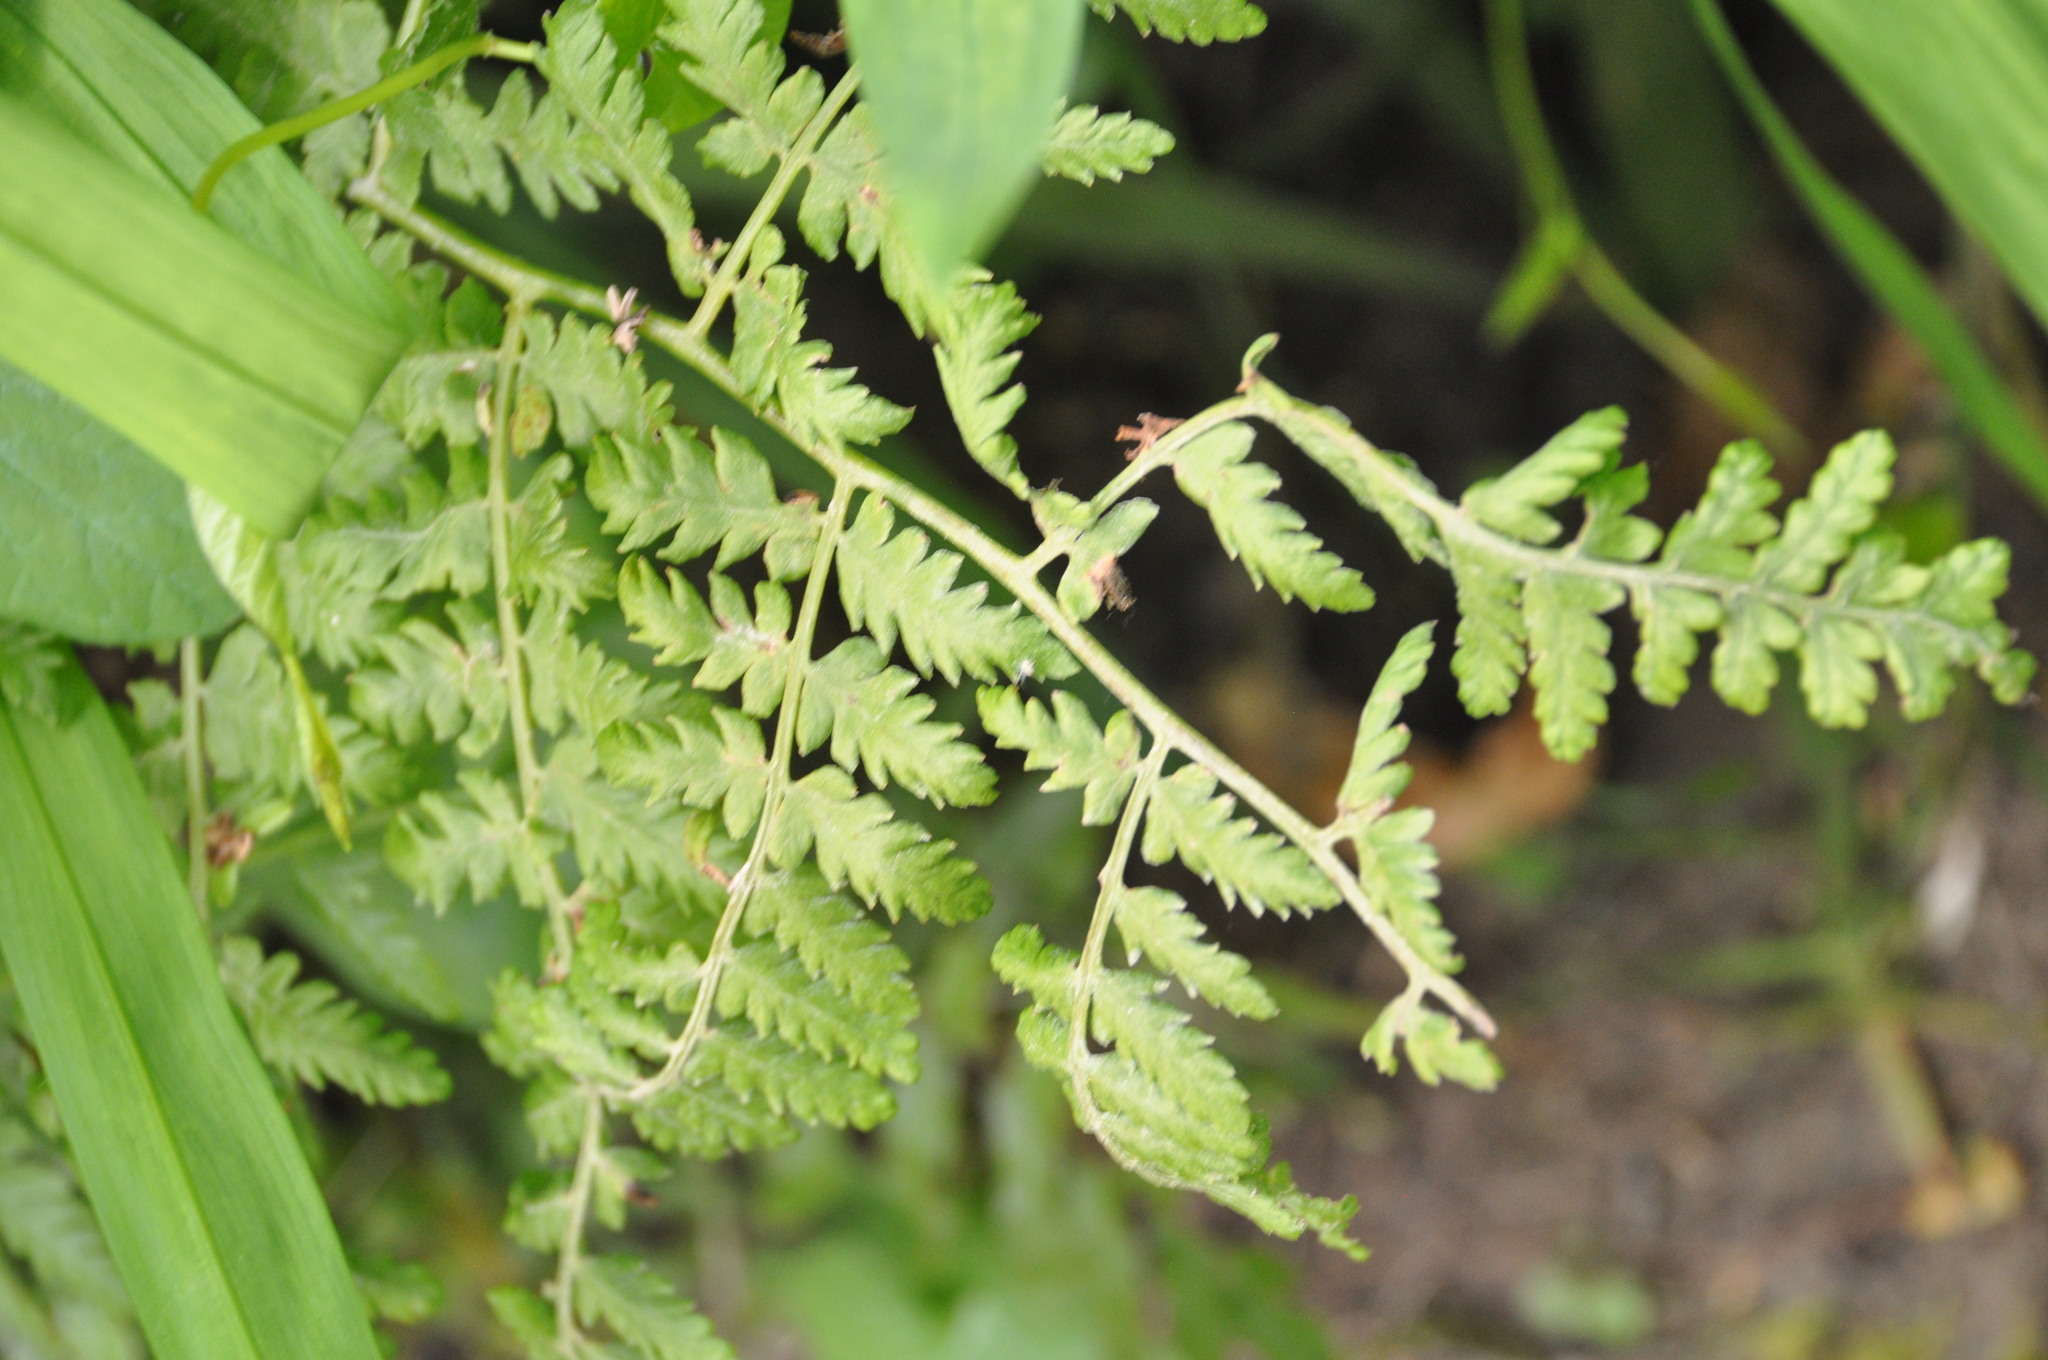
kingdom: Plantae
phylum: Tracheophyta
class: Polypodiopsida
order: Polypodiales
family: Dennstaedtiaceae
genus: Hypolepis
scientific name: Hypolepis ambigua
